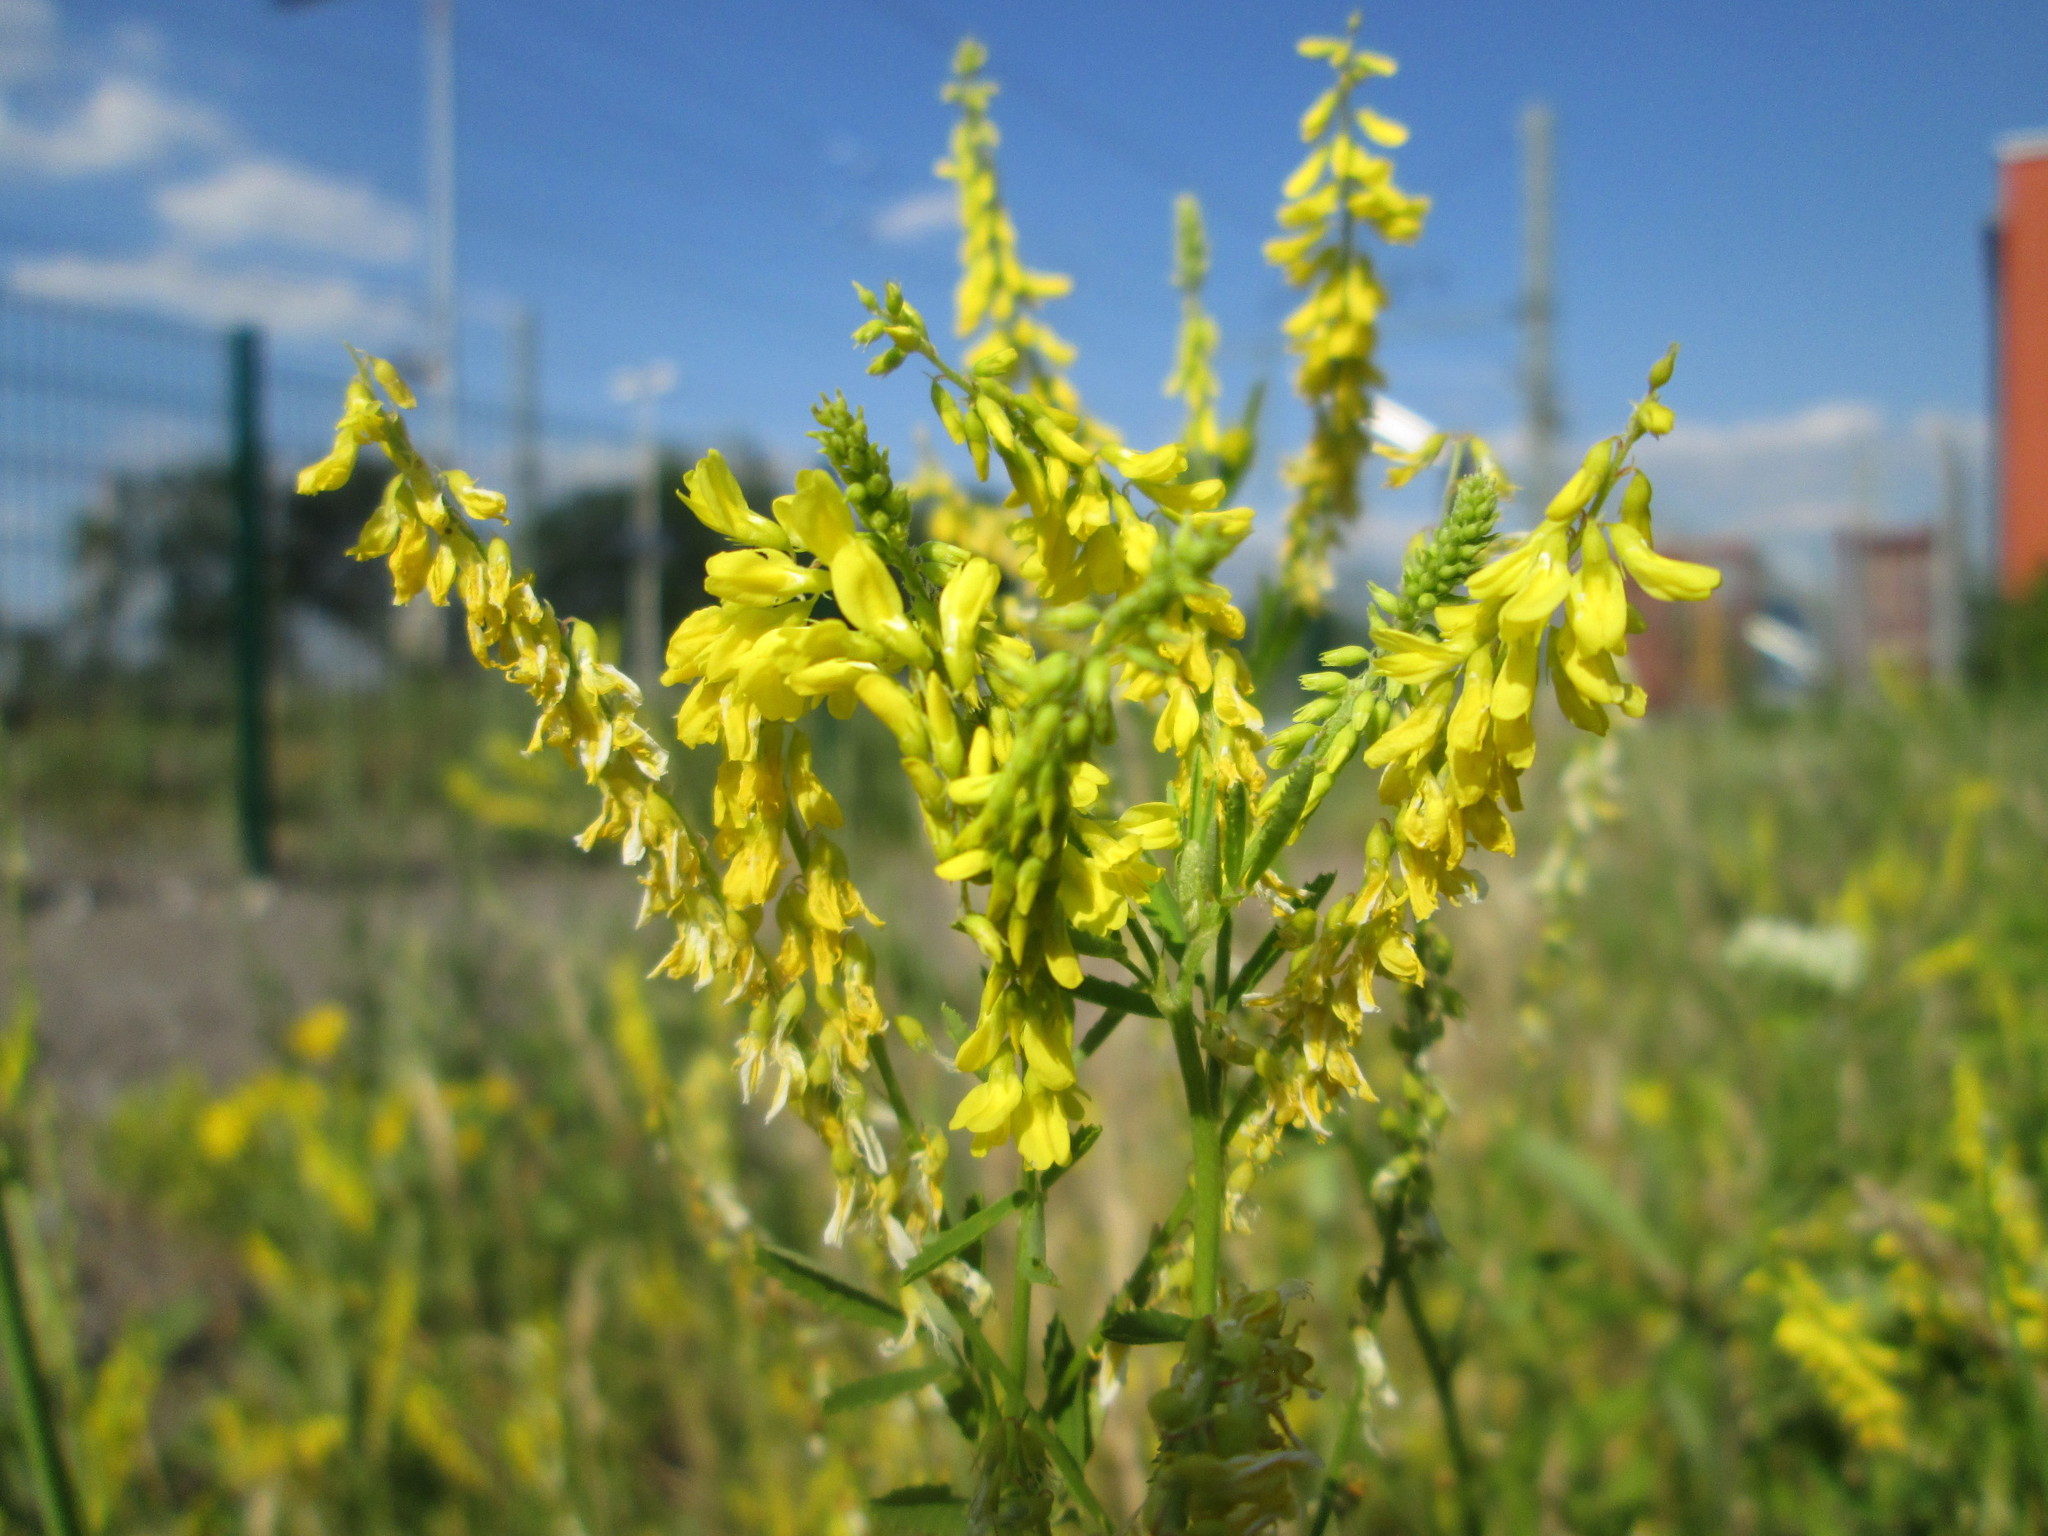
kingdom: Plantae
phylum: Tracheophyta
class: Magnoliopsida
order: Fabales
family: Fabaceae
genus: Melilotus
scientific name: Melilotus officinalis
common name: Sweetclover
